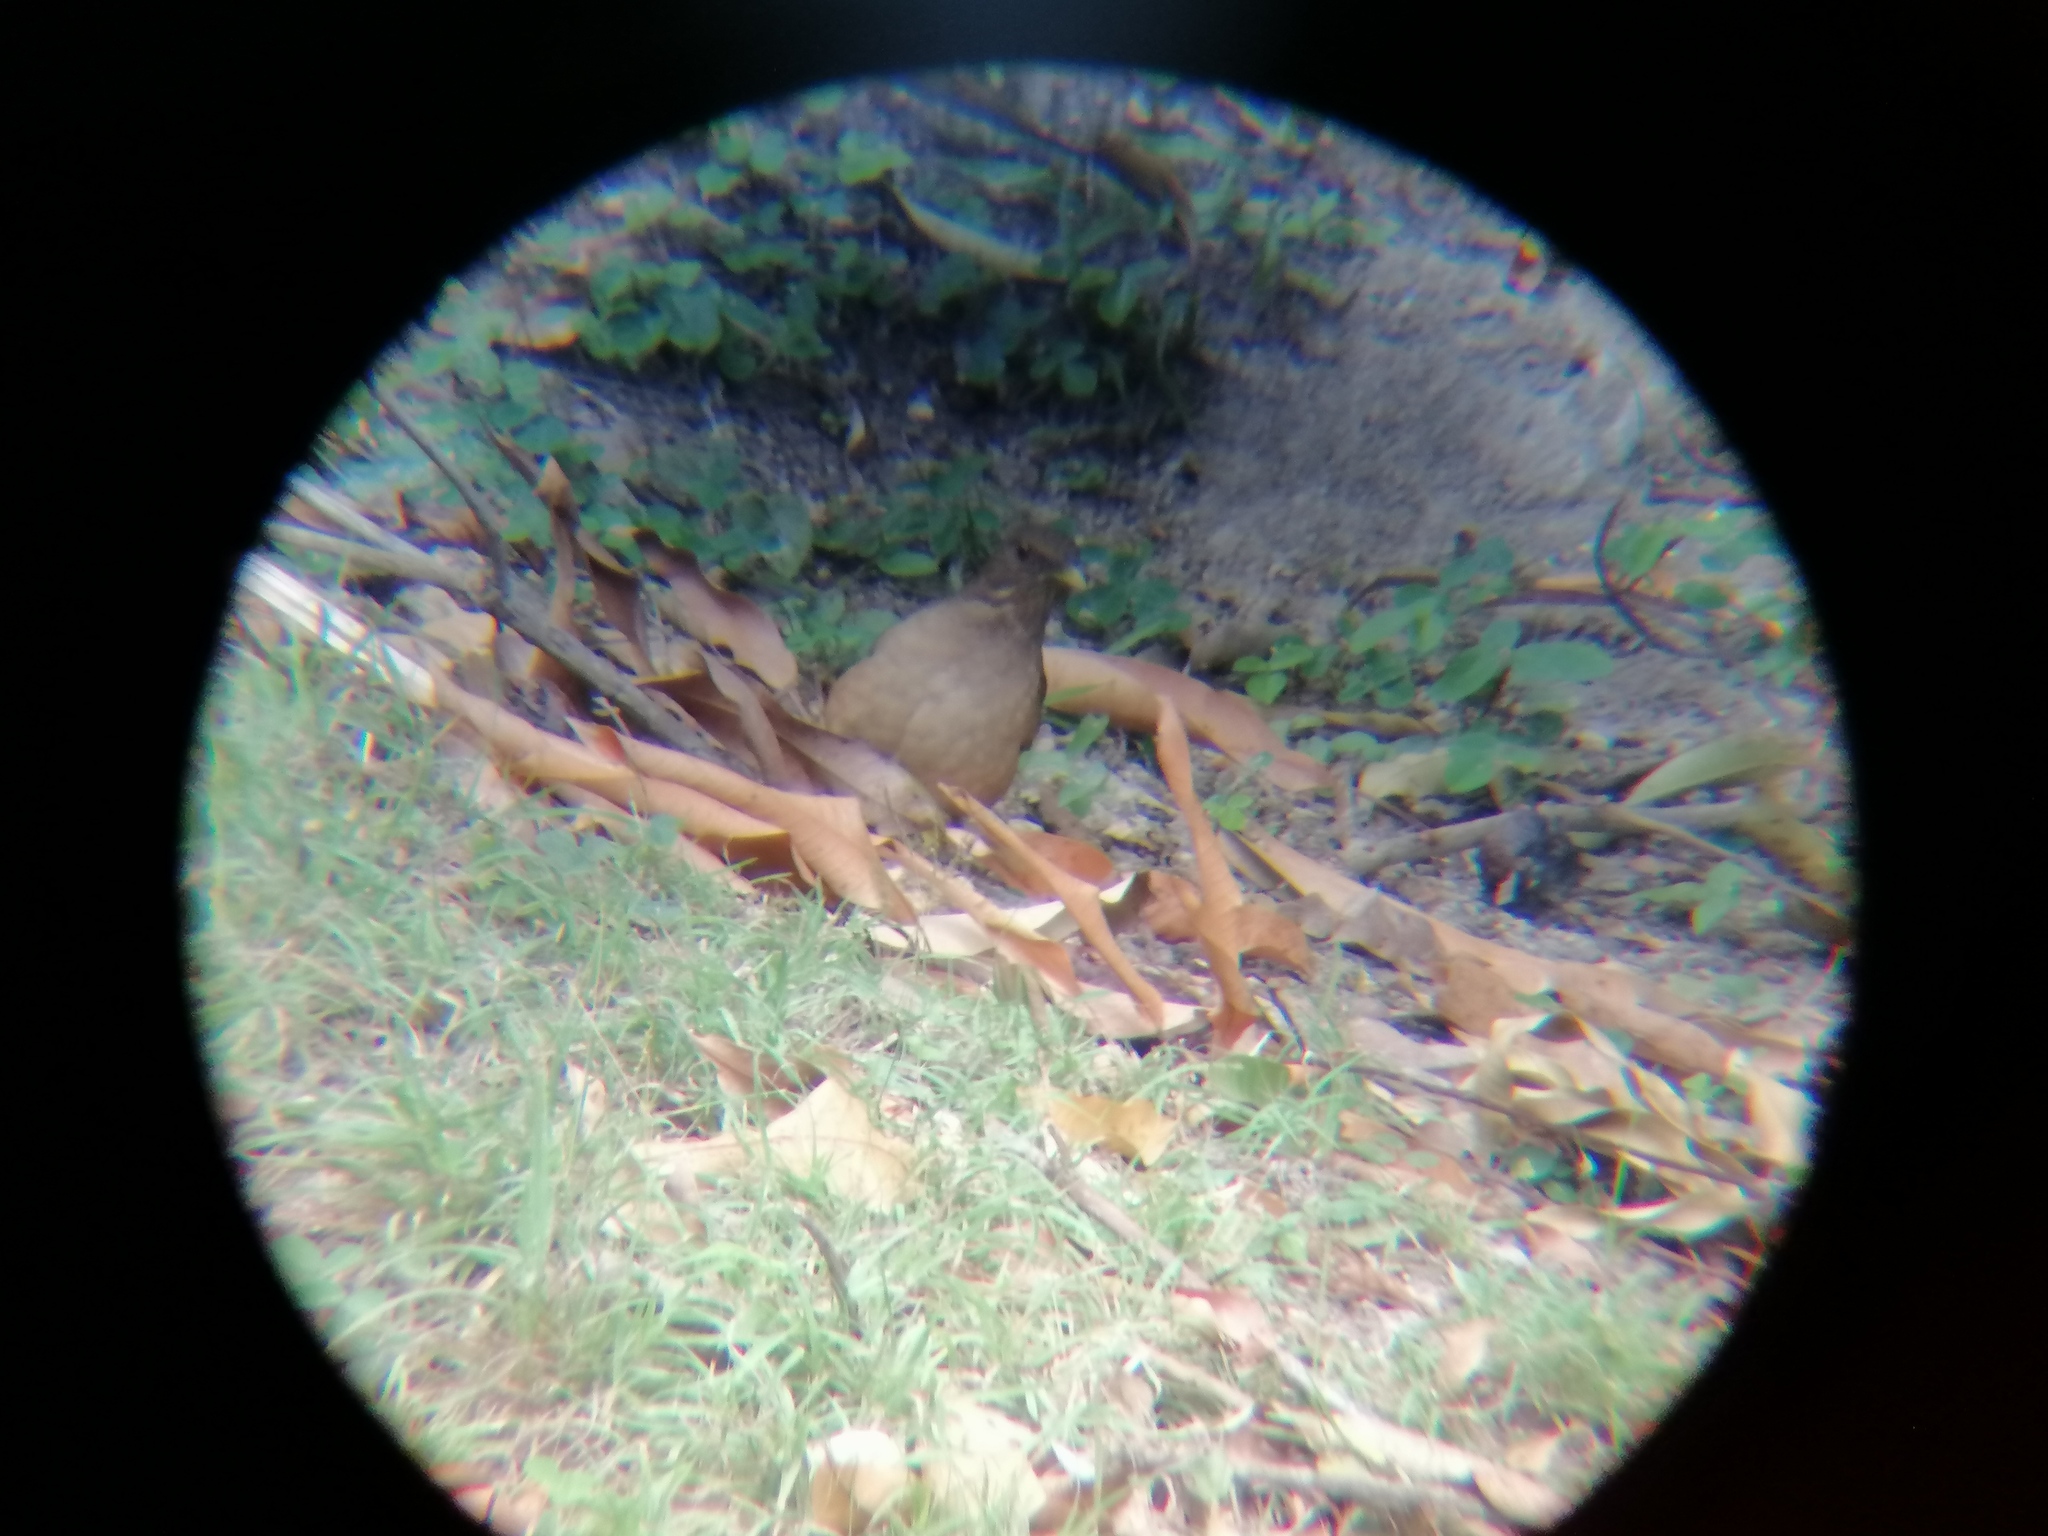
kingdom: Animalia
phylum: Chordata
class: Aves
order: Passeriformes
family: Turdidae
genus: Turdus
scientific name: Turdus grayi
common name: Clay-colored thrush
